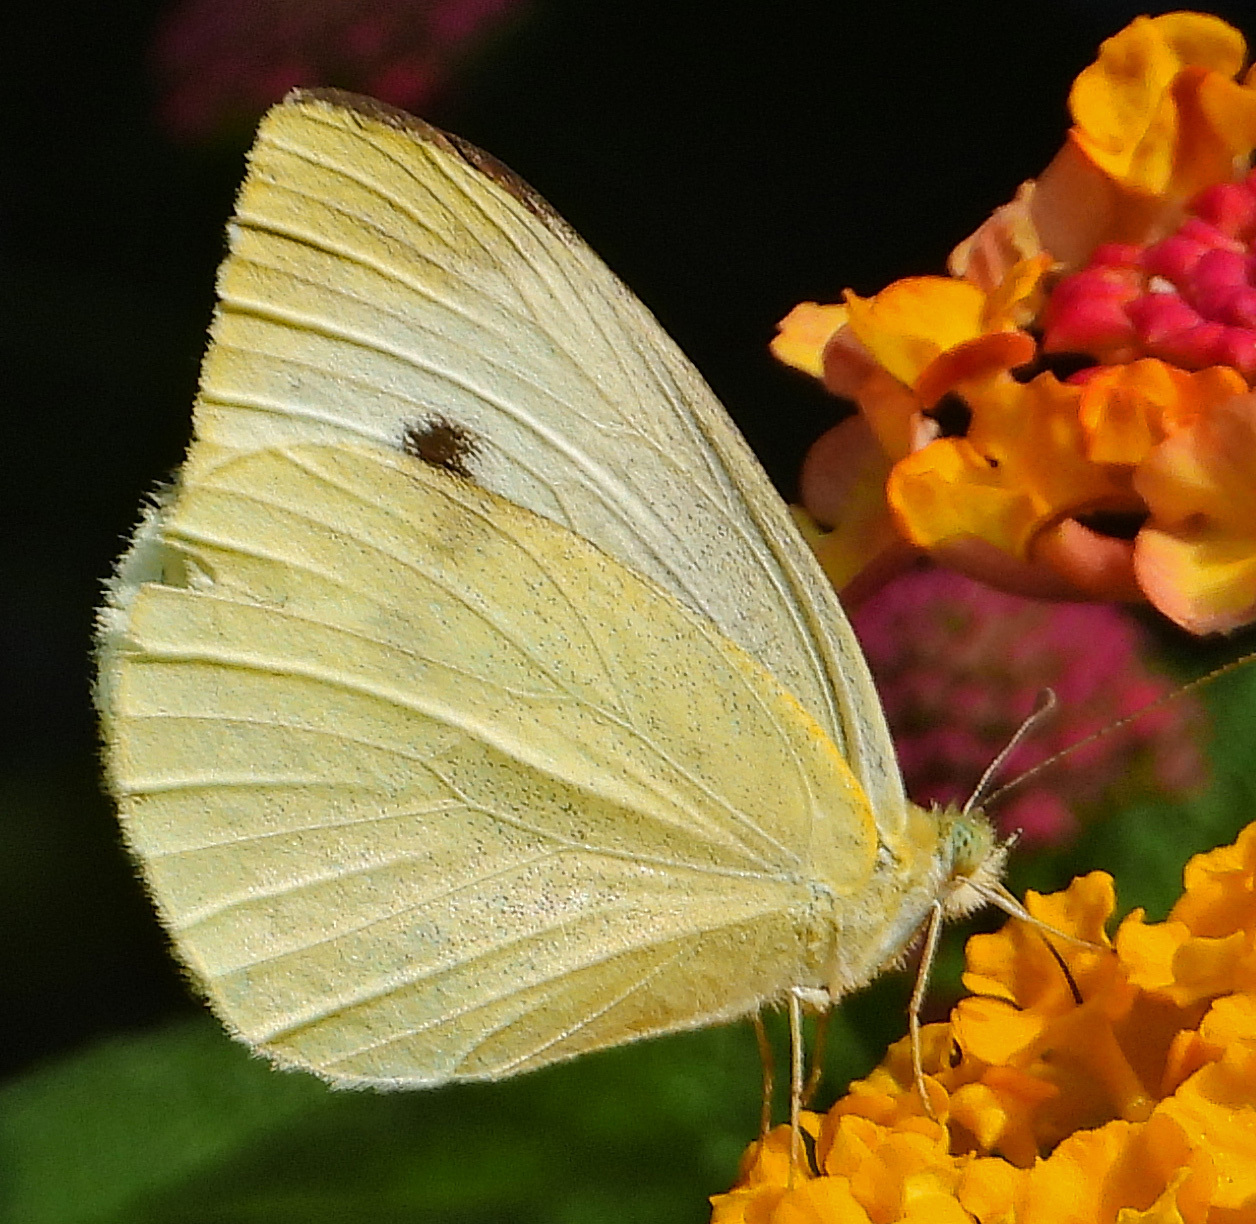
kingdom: Animalia
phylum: Arthropoda
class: Insecta
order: Lepidoptera
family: Pieridae
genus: Pieris
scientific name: Pieris rapae
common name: Small white
